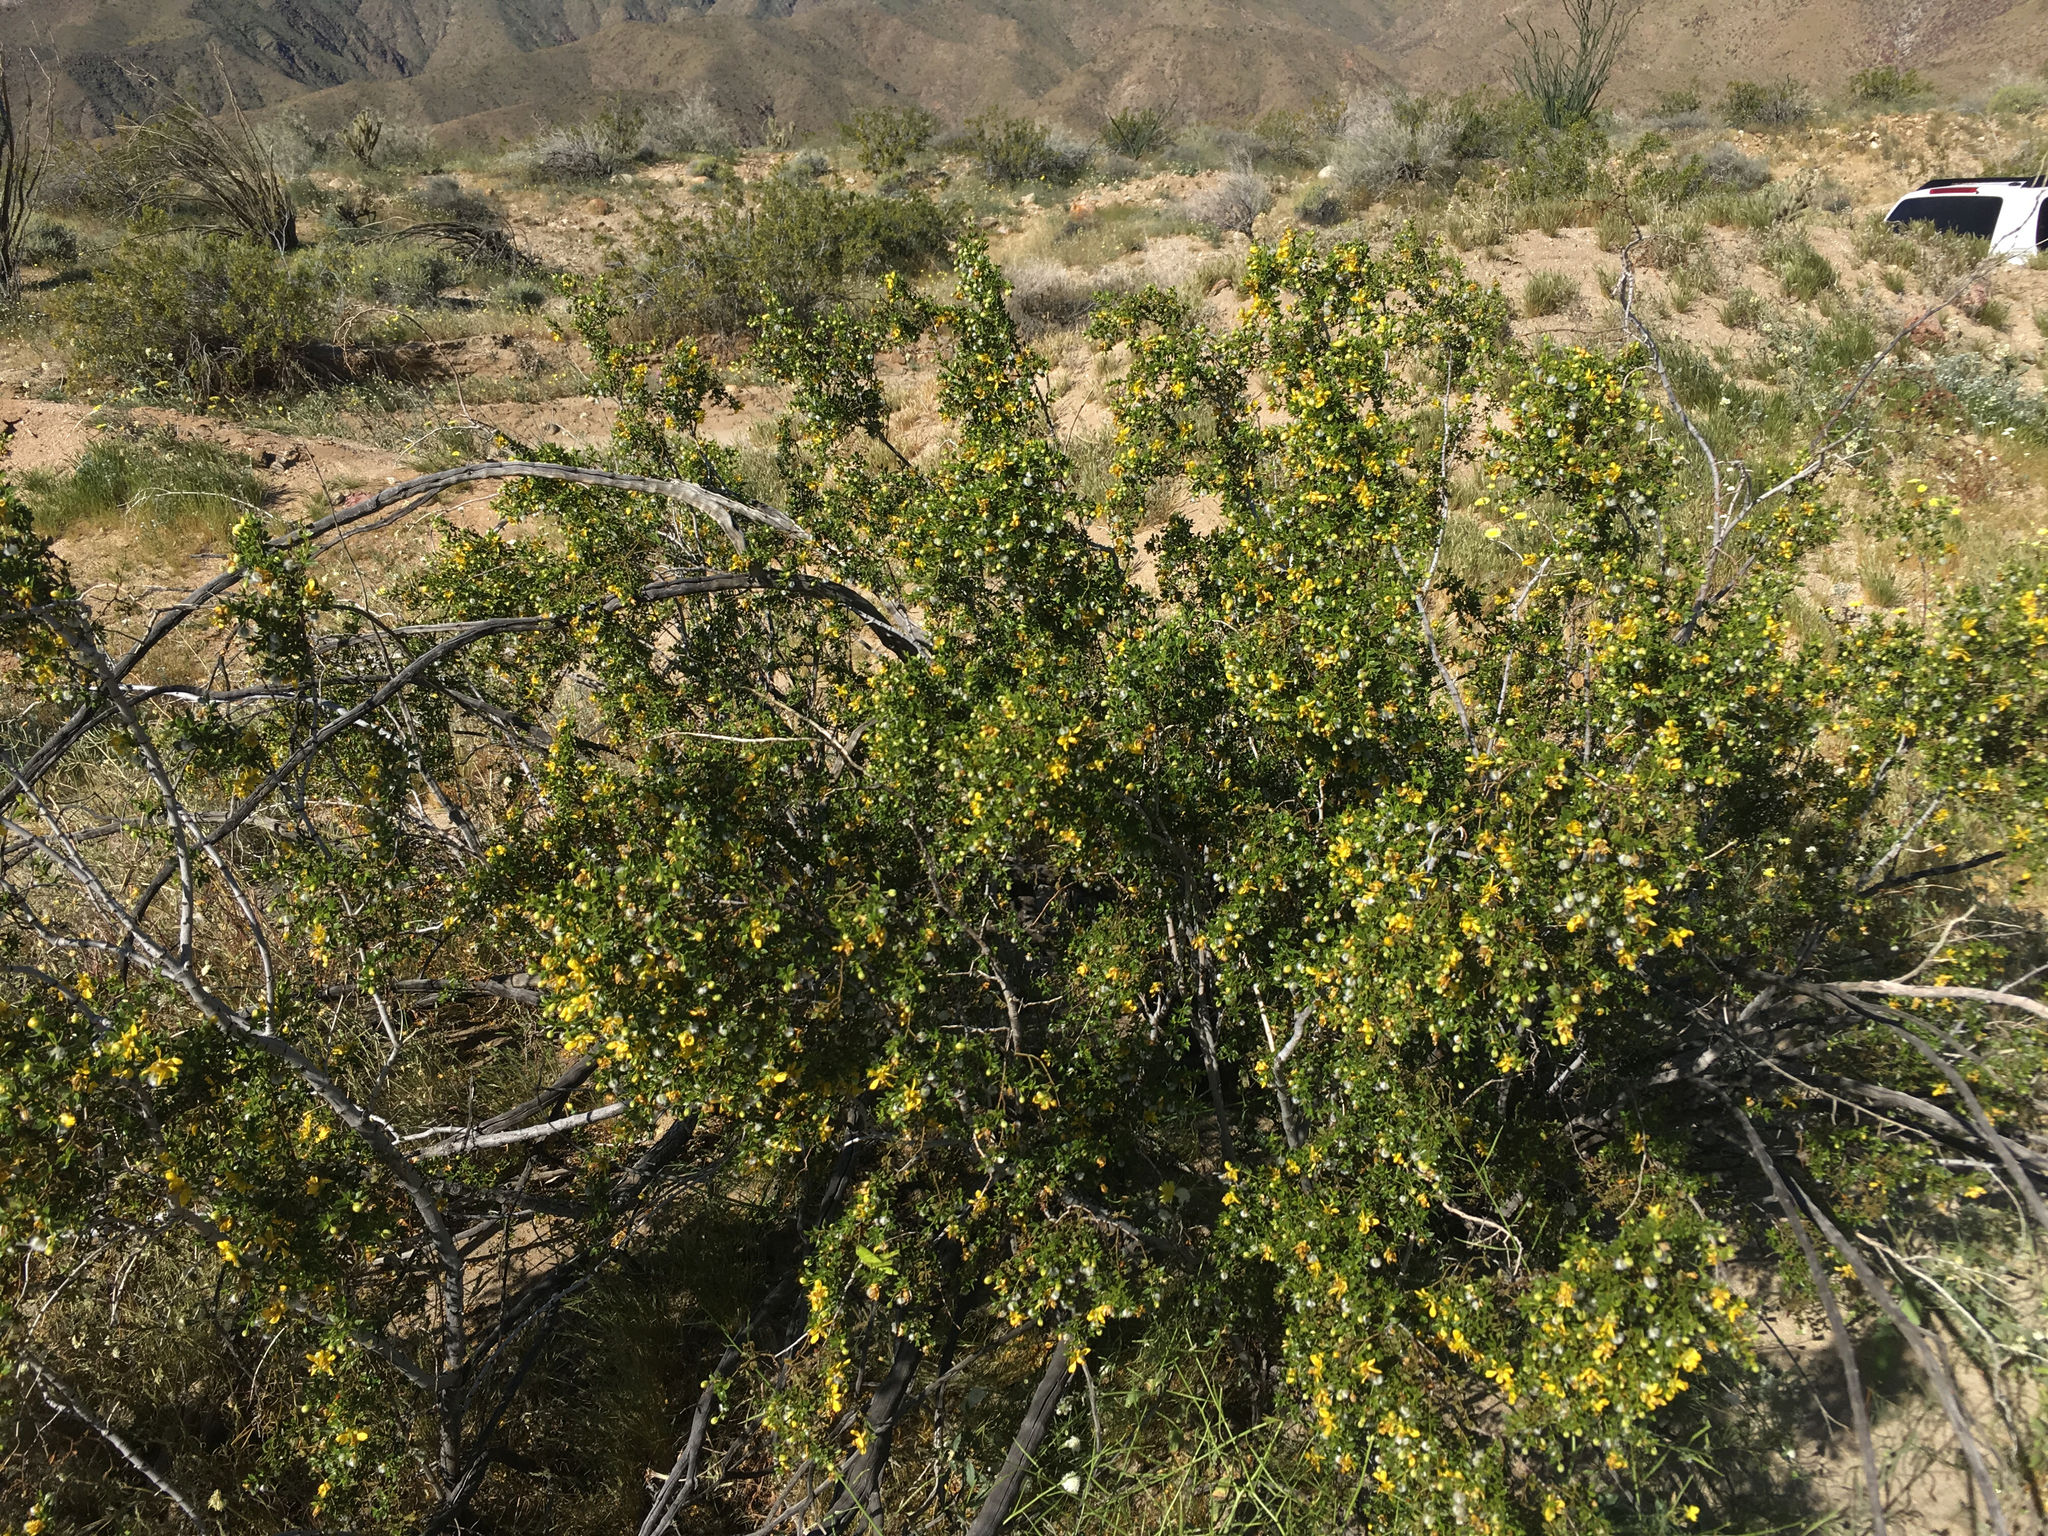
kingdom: Plantae
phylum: Tracheophyta
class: Magnoliopsida
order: Zygophyllales
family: Zygophyllaceae
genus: Larrea
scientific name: Larrea tridentata
